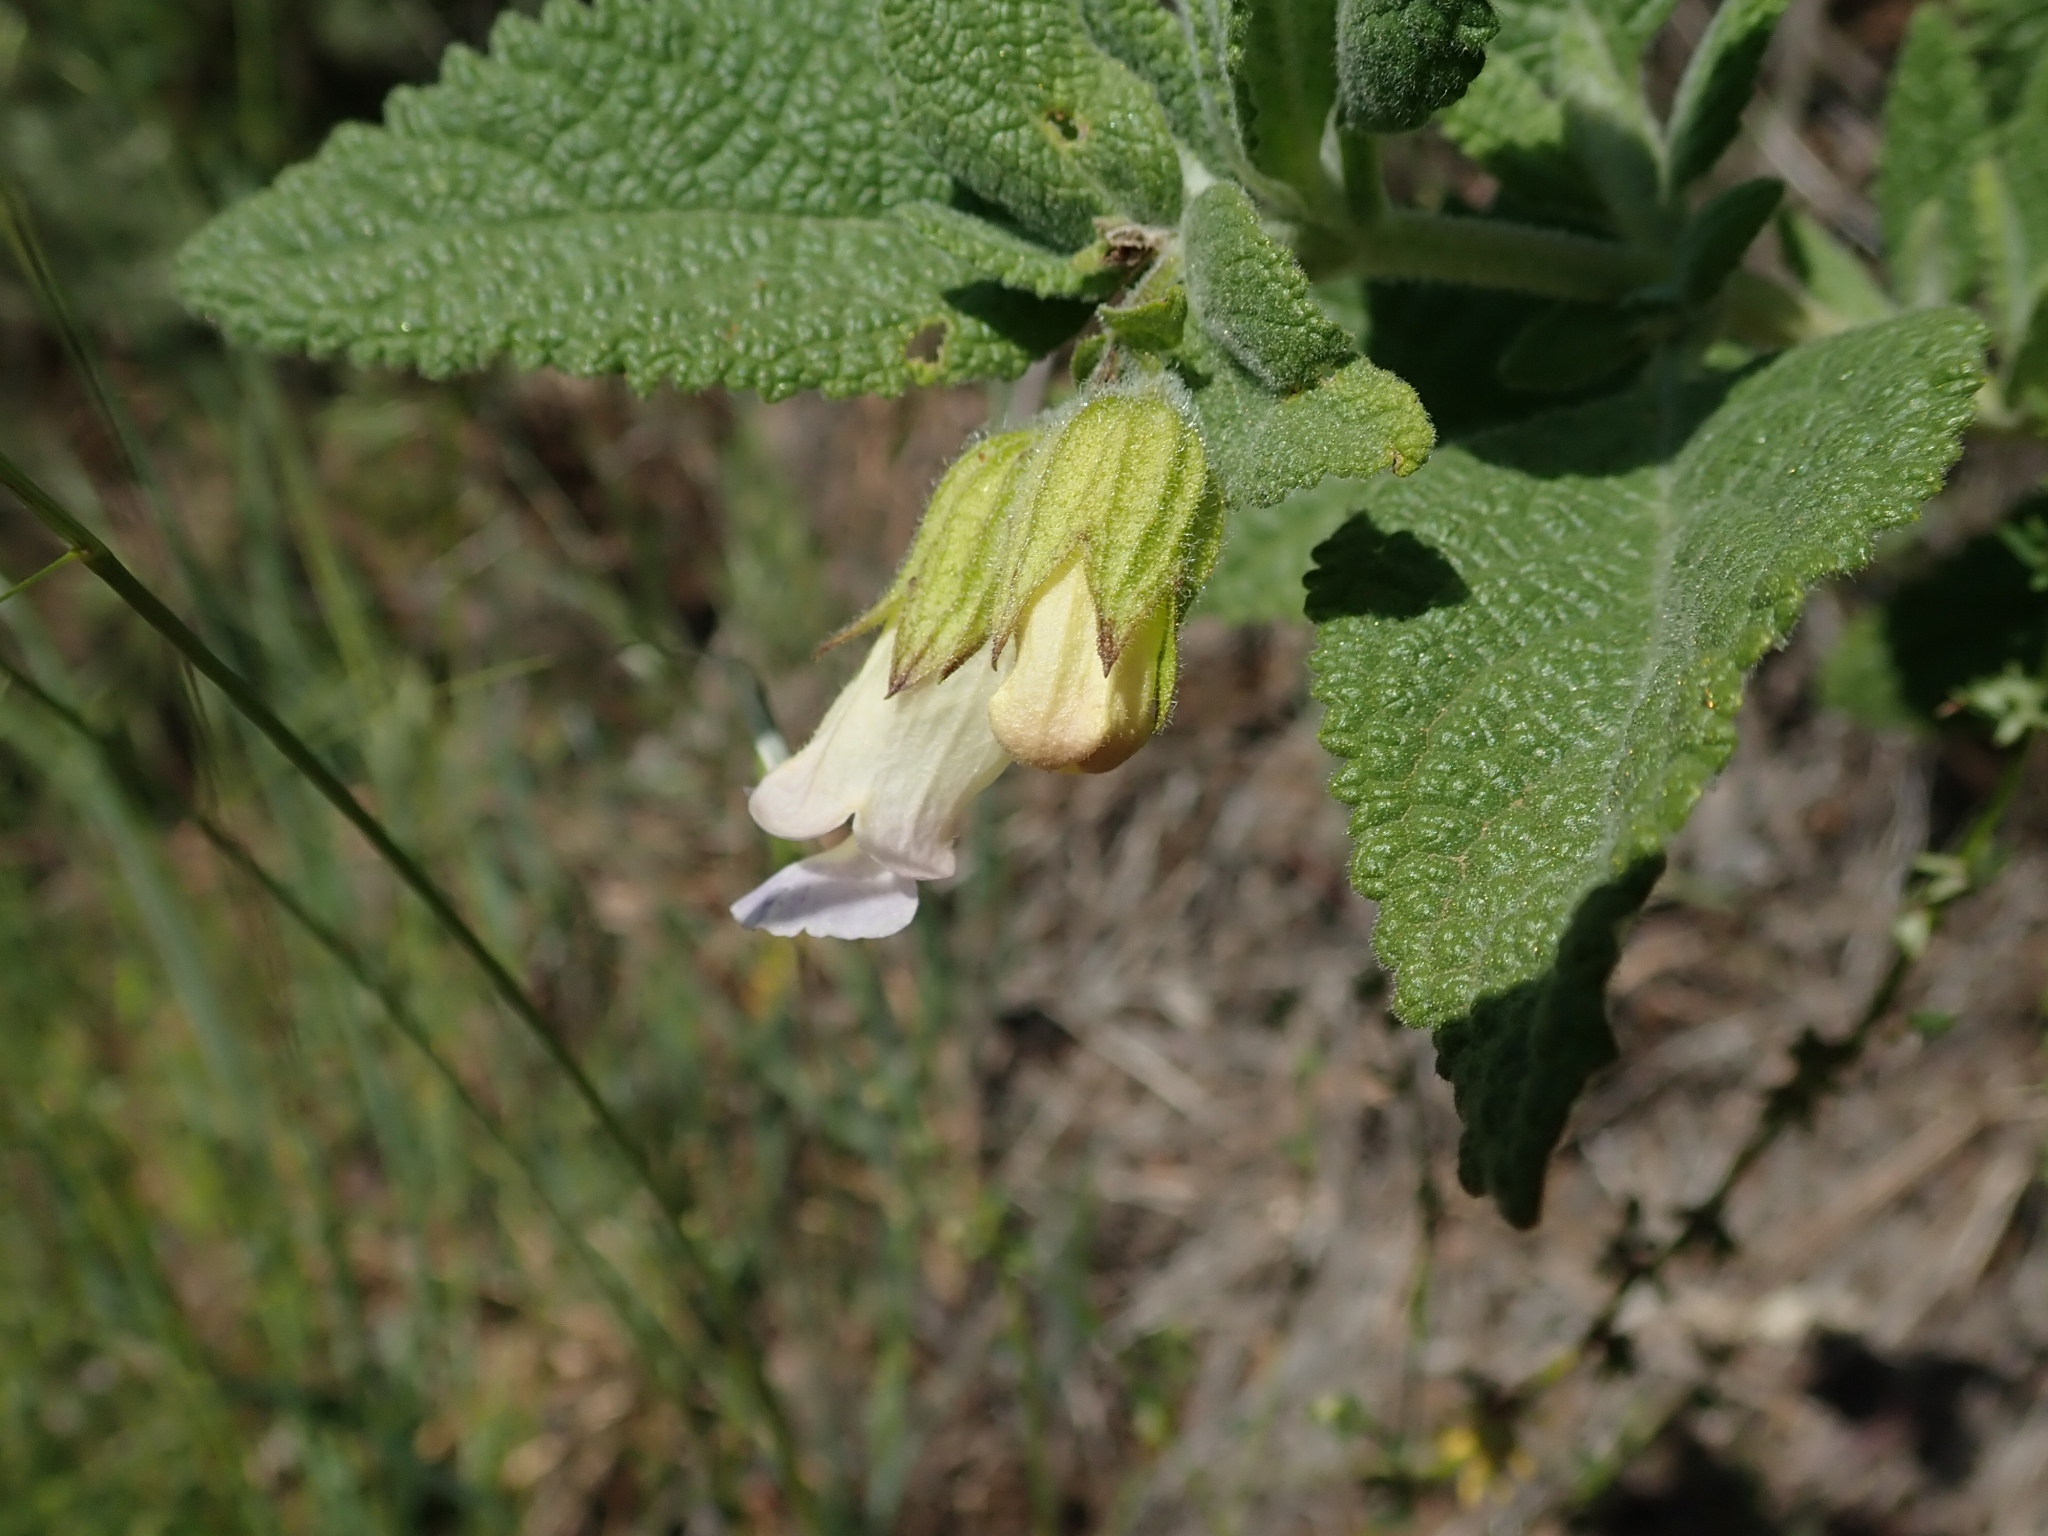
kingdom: Plantae
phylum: Tracheophyta
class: Magnoliopsida
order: Lamiales
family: Lamiaceae
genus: Lepechinia
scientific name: Lepechinia calycina
